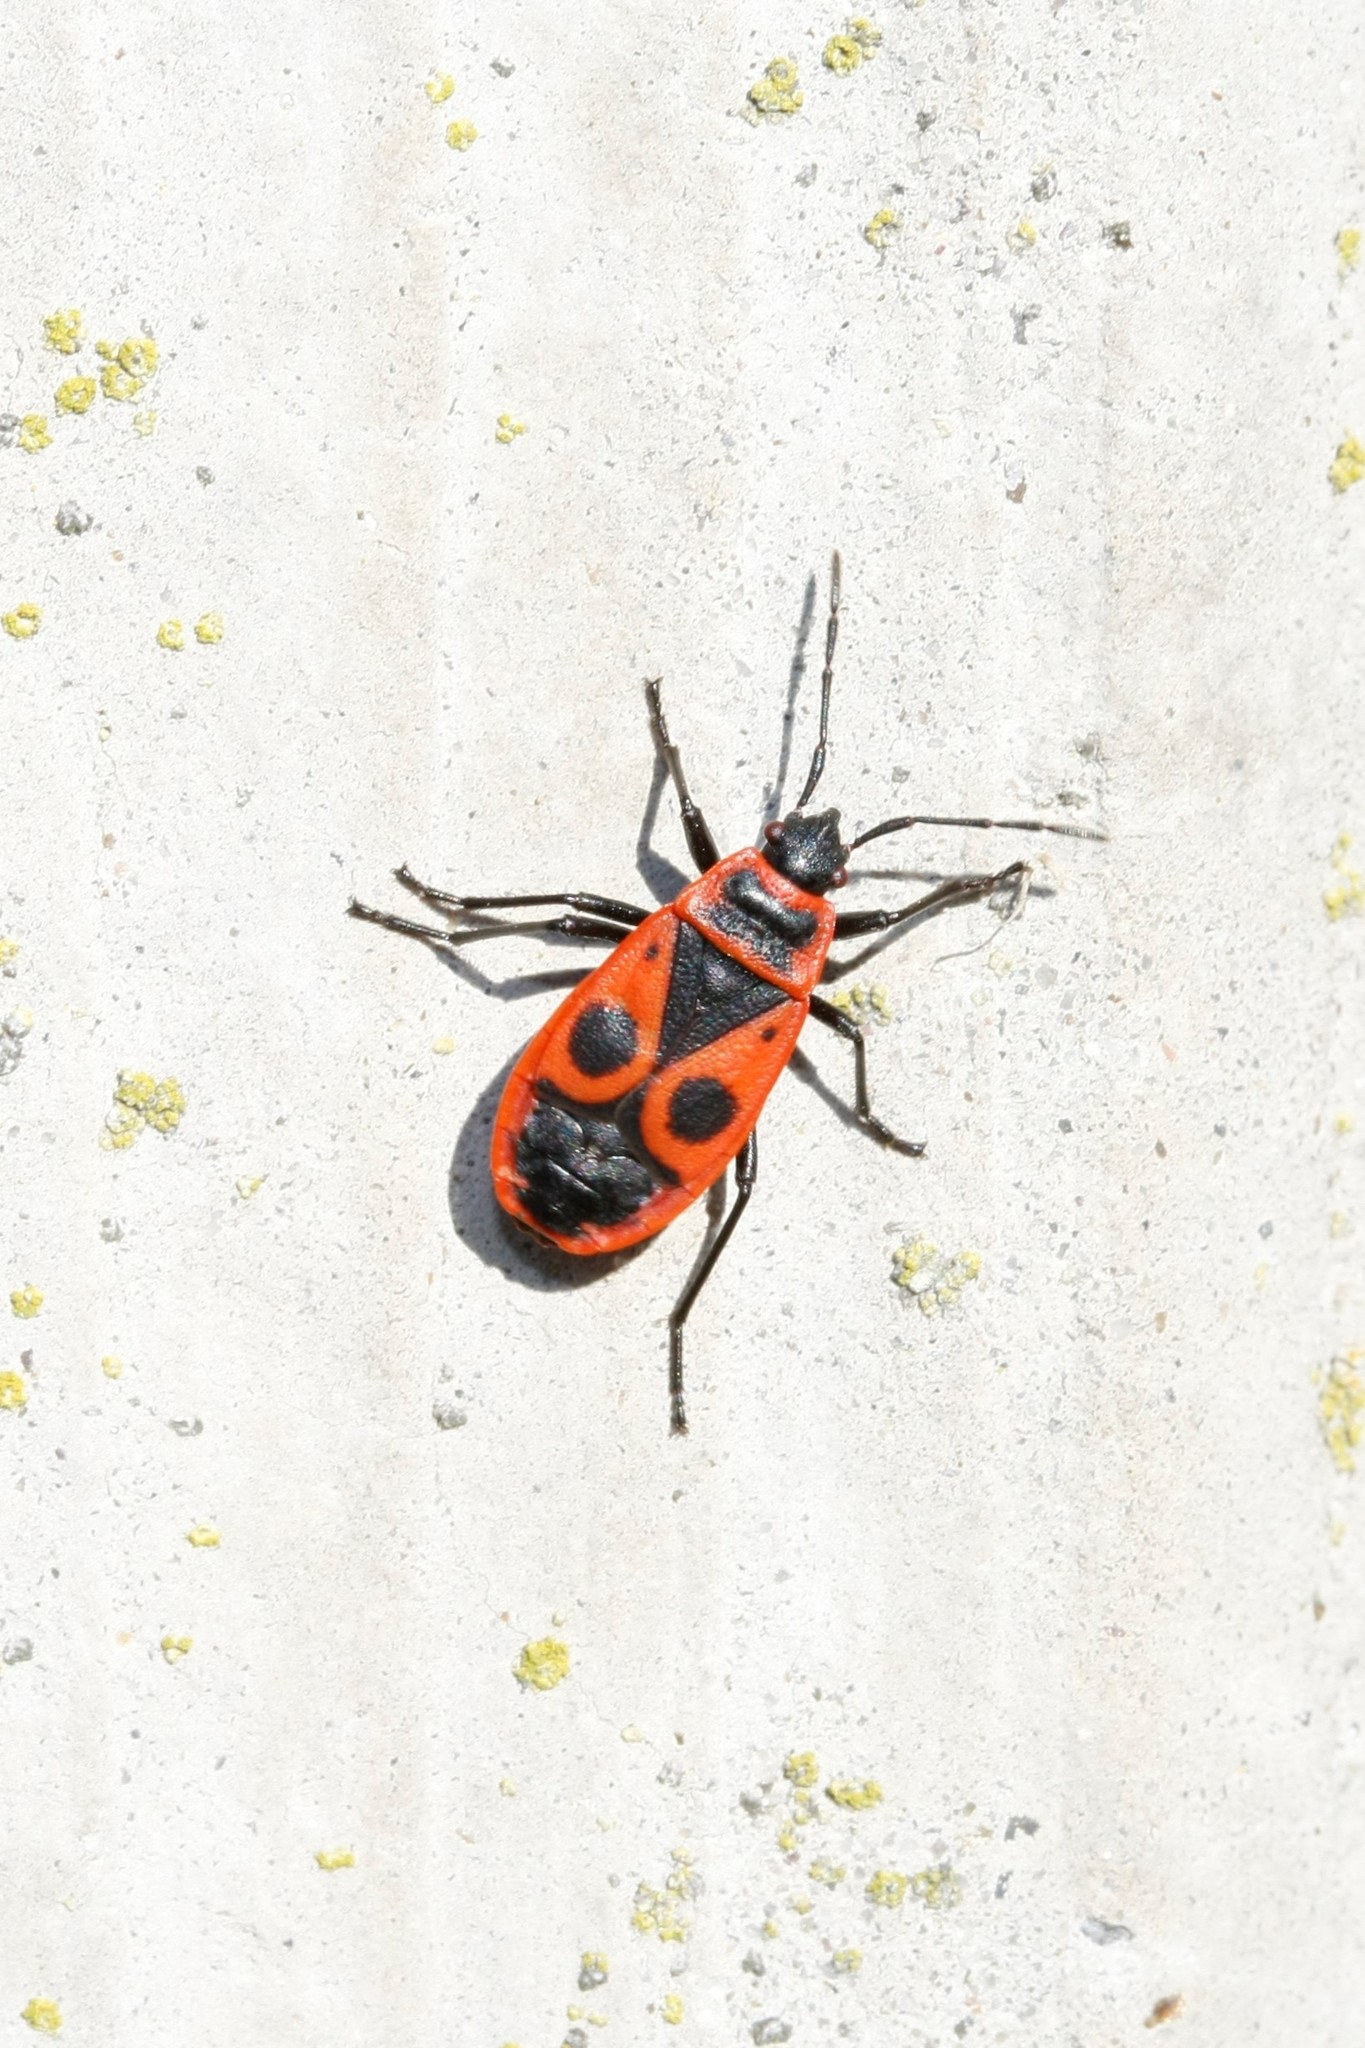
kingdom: Animalia
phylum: Arthropoda
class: Insecta
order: Hemiptera
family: Pyrrhocoridae
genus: Pyrrhocoris
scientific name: Pyrrhocoris apterus
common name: Firebug
